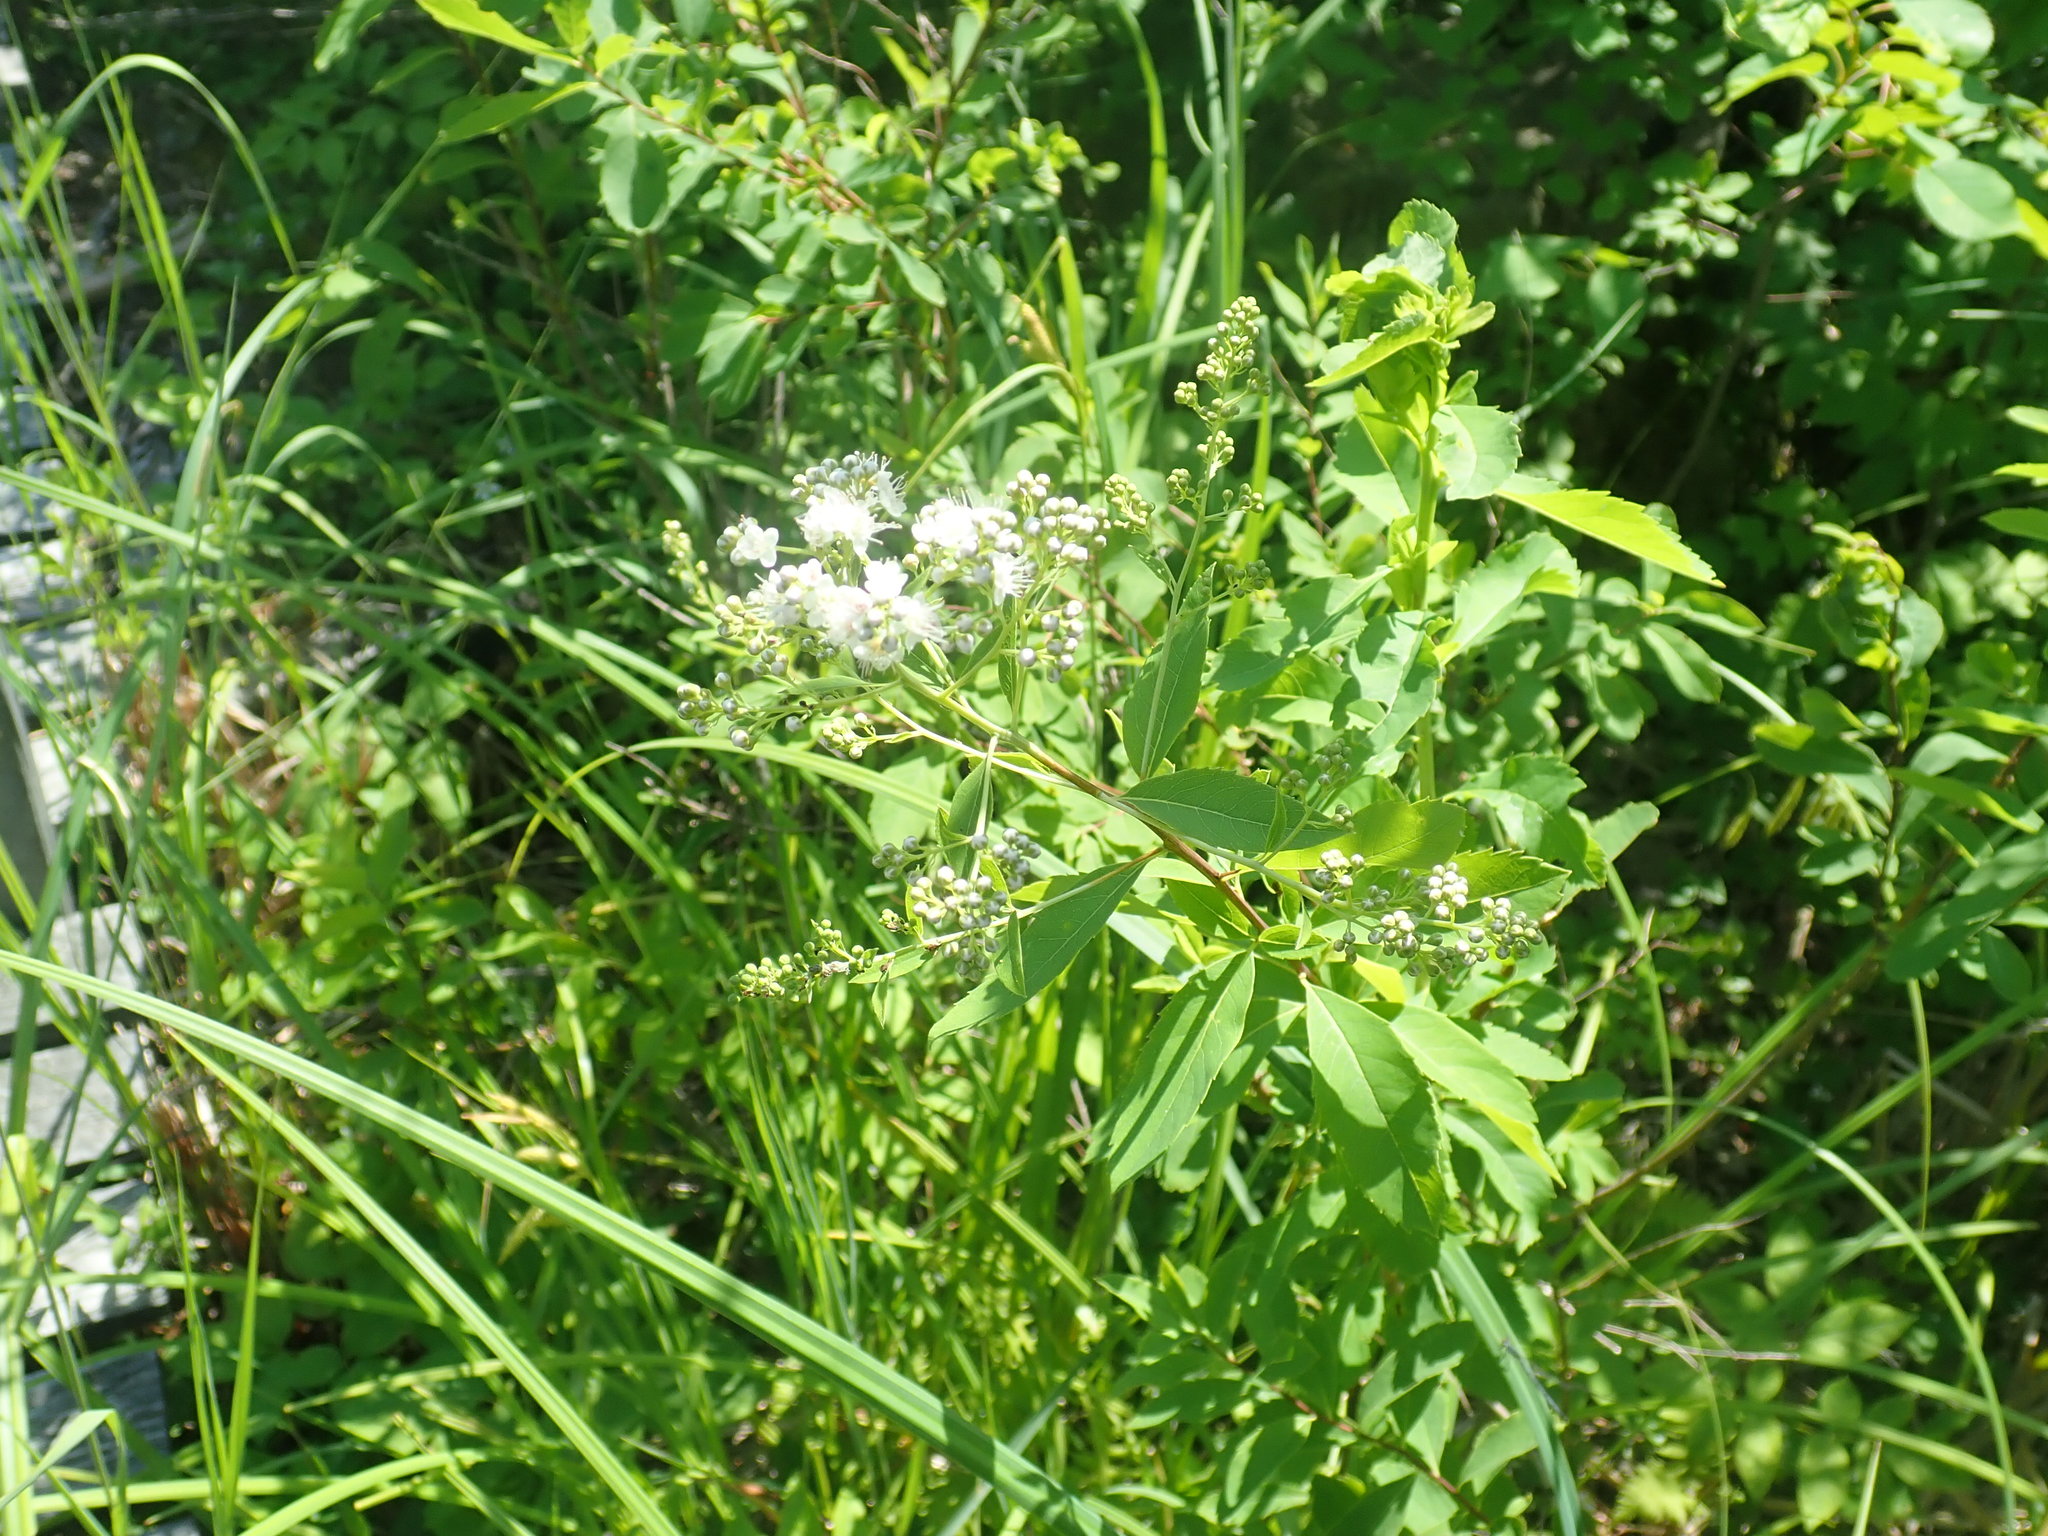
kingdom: Plantae
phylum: Tracheophyta
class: Magnoliopsida
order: Rosales
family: Rosaceae
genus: Spiraea
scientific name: Spiraea alba
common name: Pale bridewort
